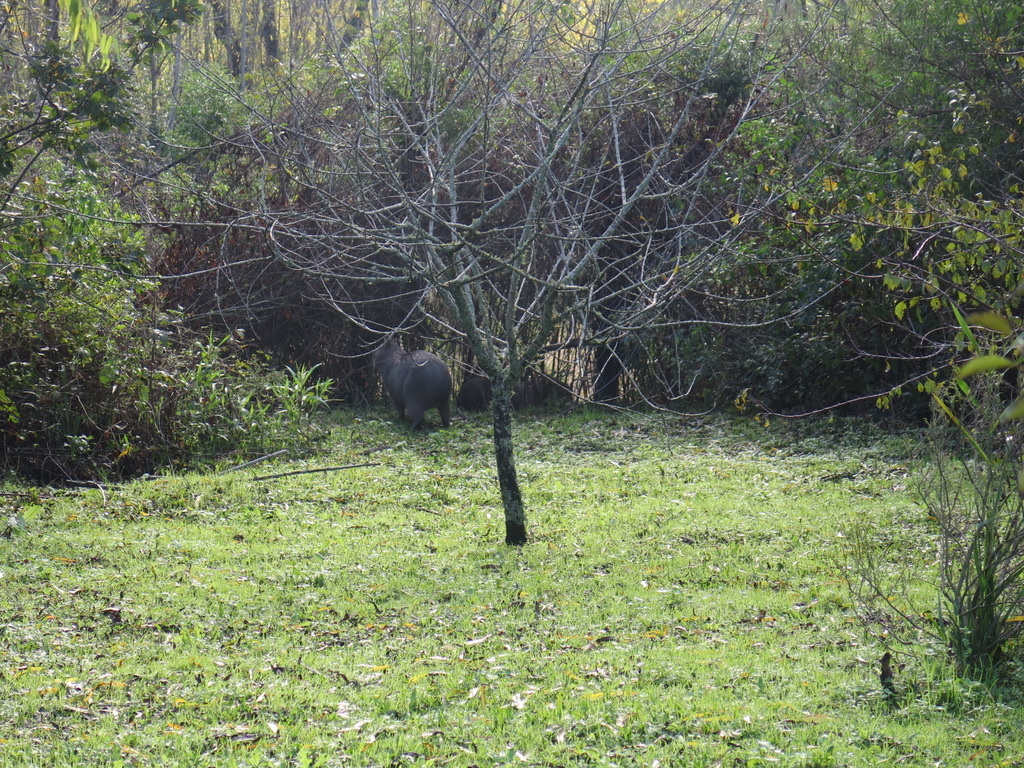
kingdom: Animalia
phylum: Chordata
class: Mammalia
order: Rodentia
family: Caviidae
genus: Hydrochoerus
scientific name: Hydrochoerus hydrochaeris
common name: Capybara
